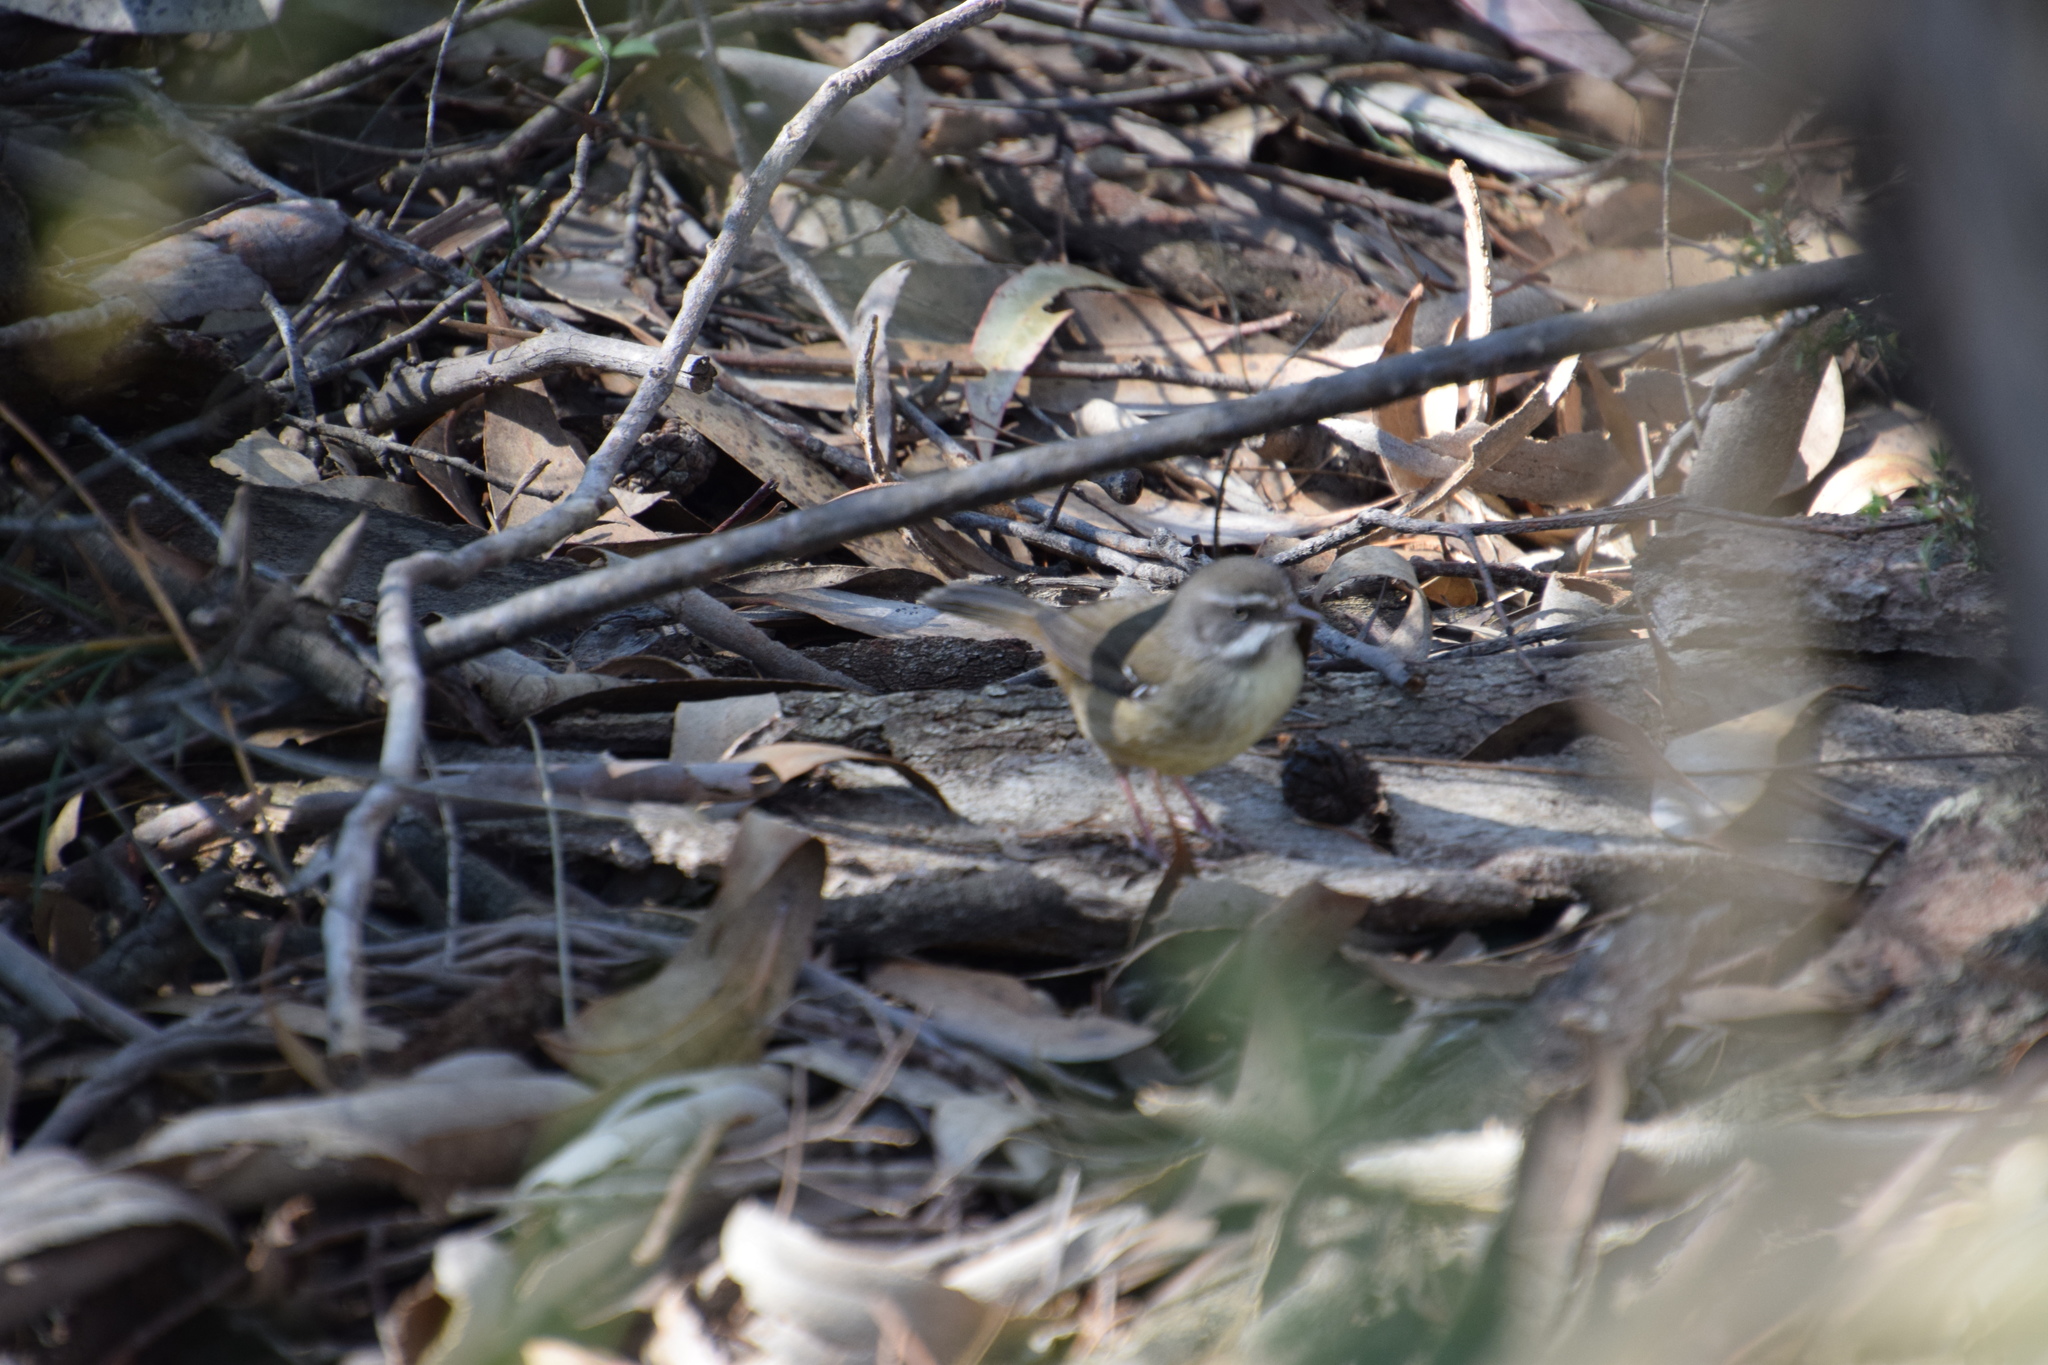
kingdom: Animalia
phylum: Chordata
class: Aves
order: Passeriformes
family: Acanthizidae
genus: Sericornis
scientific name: Sericornis frontalis
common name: White-browed scrubwren
